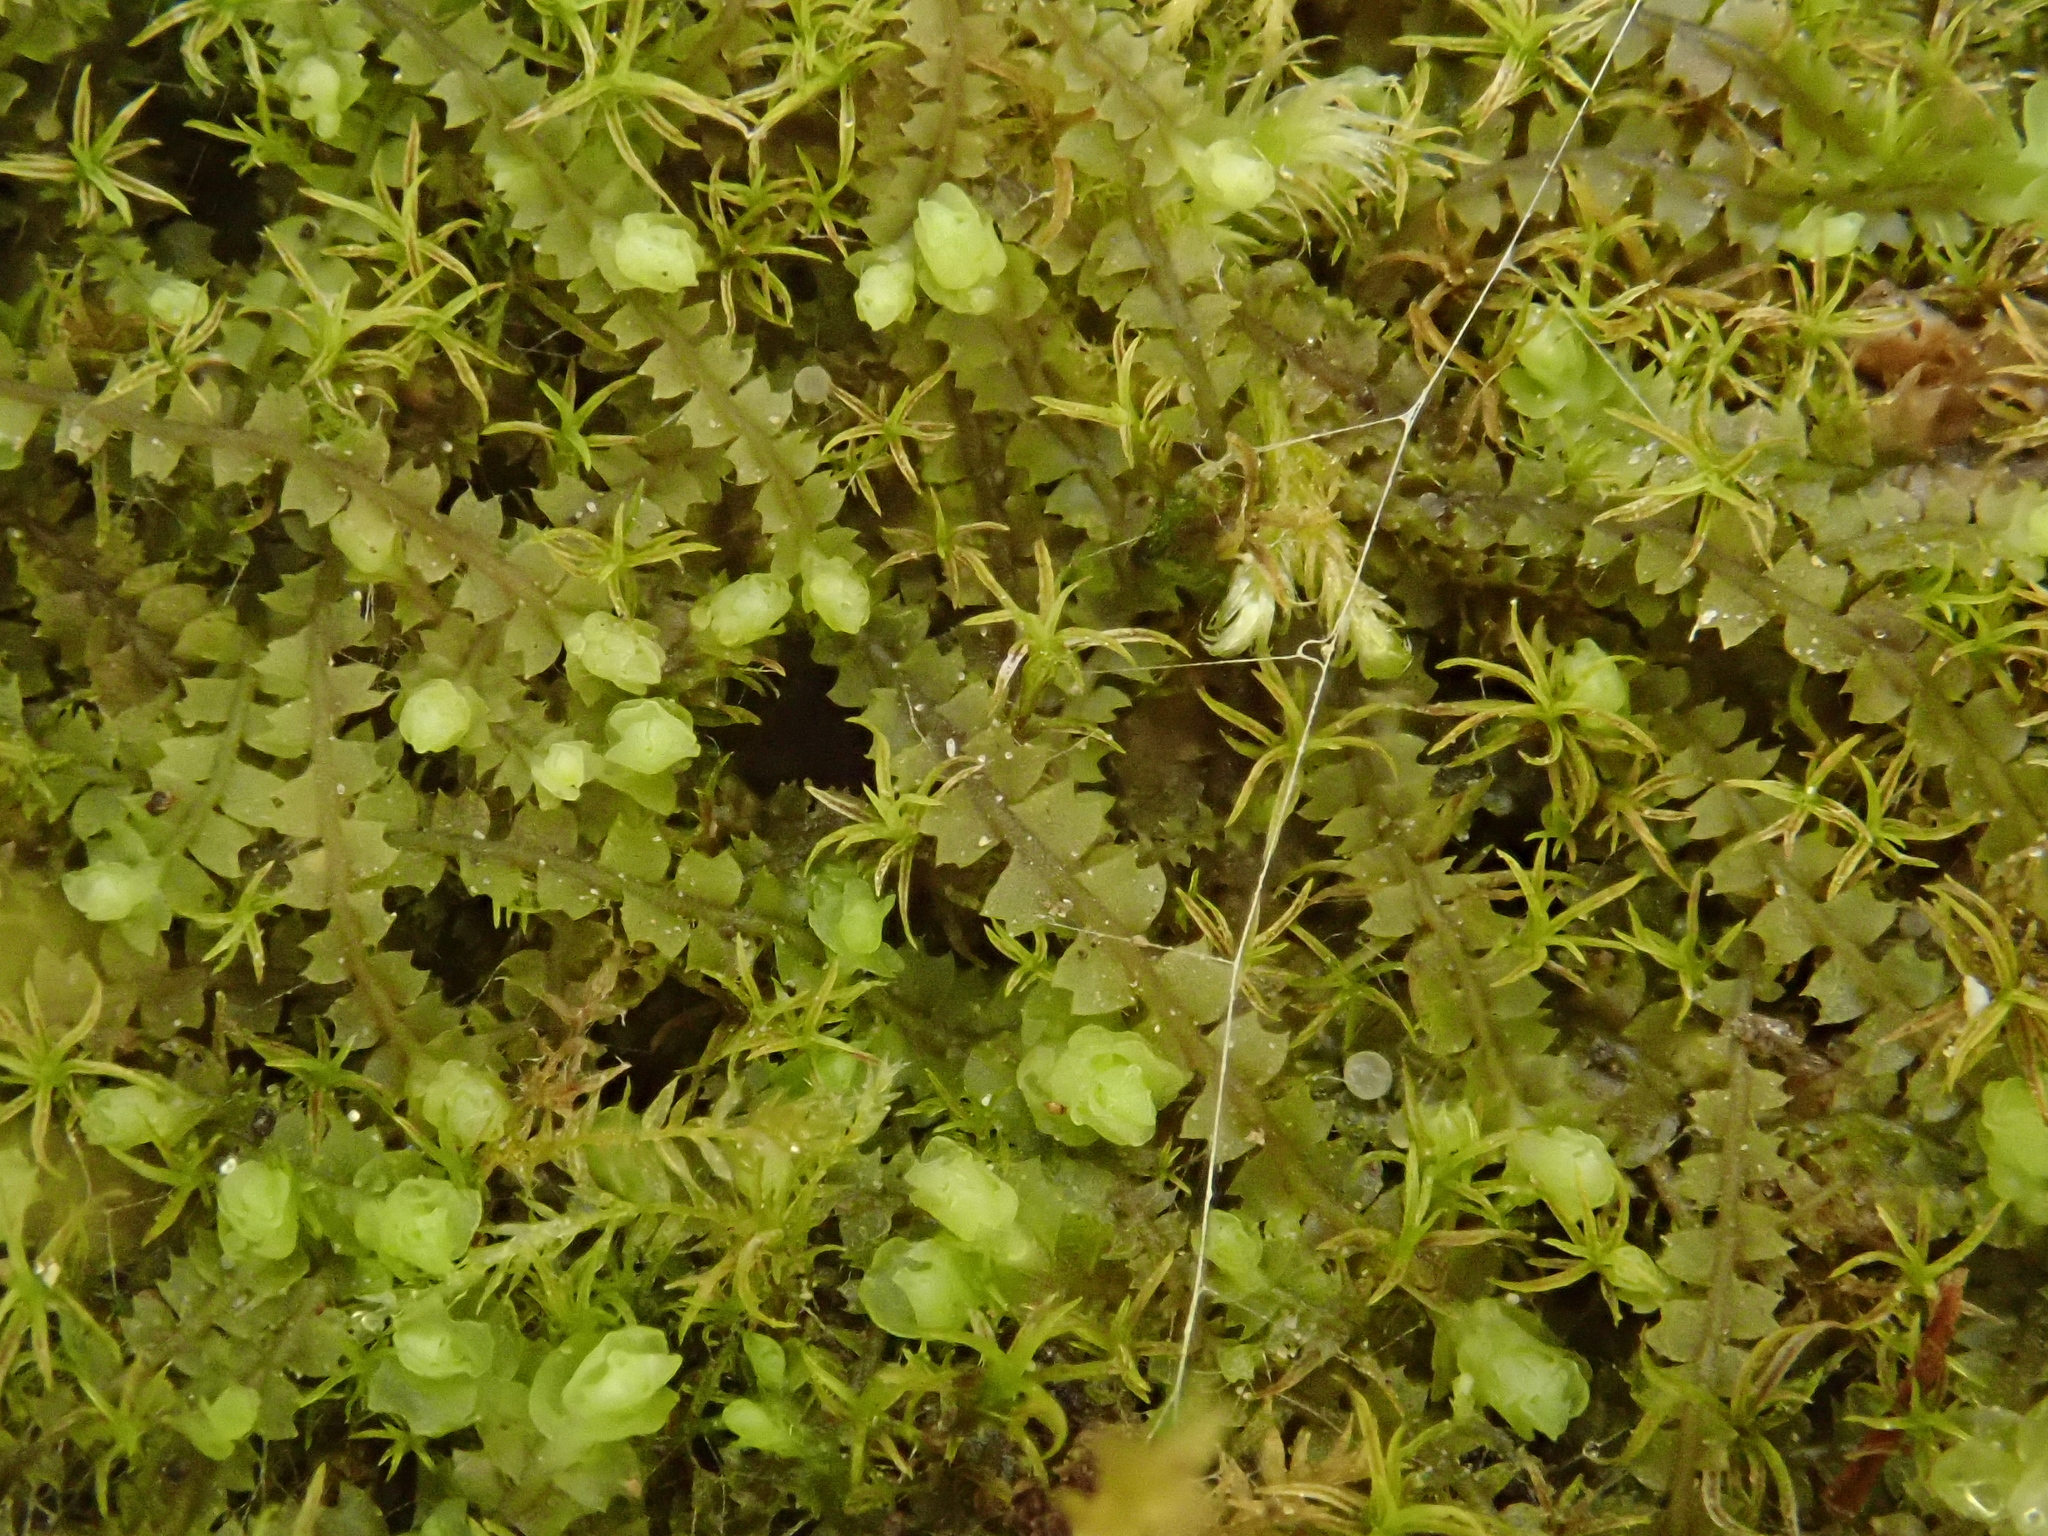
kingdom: Plantae
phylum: Marchantiophyta
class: Jungermanniopsida
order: Jungermanniales
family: Jungermanniaceae
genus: Mesoptychia
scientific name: Mesoptychia collaris
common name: Collared notchwort
